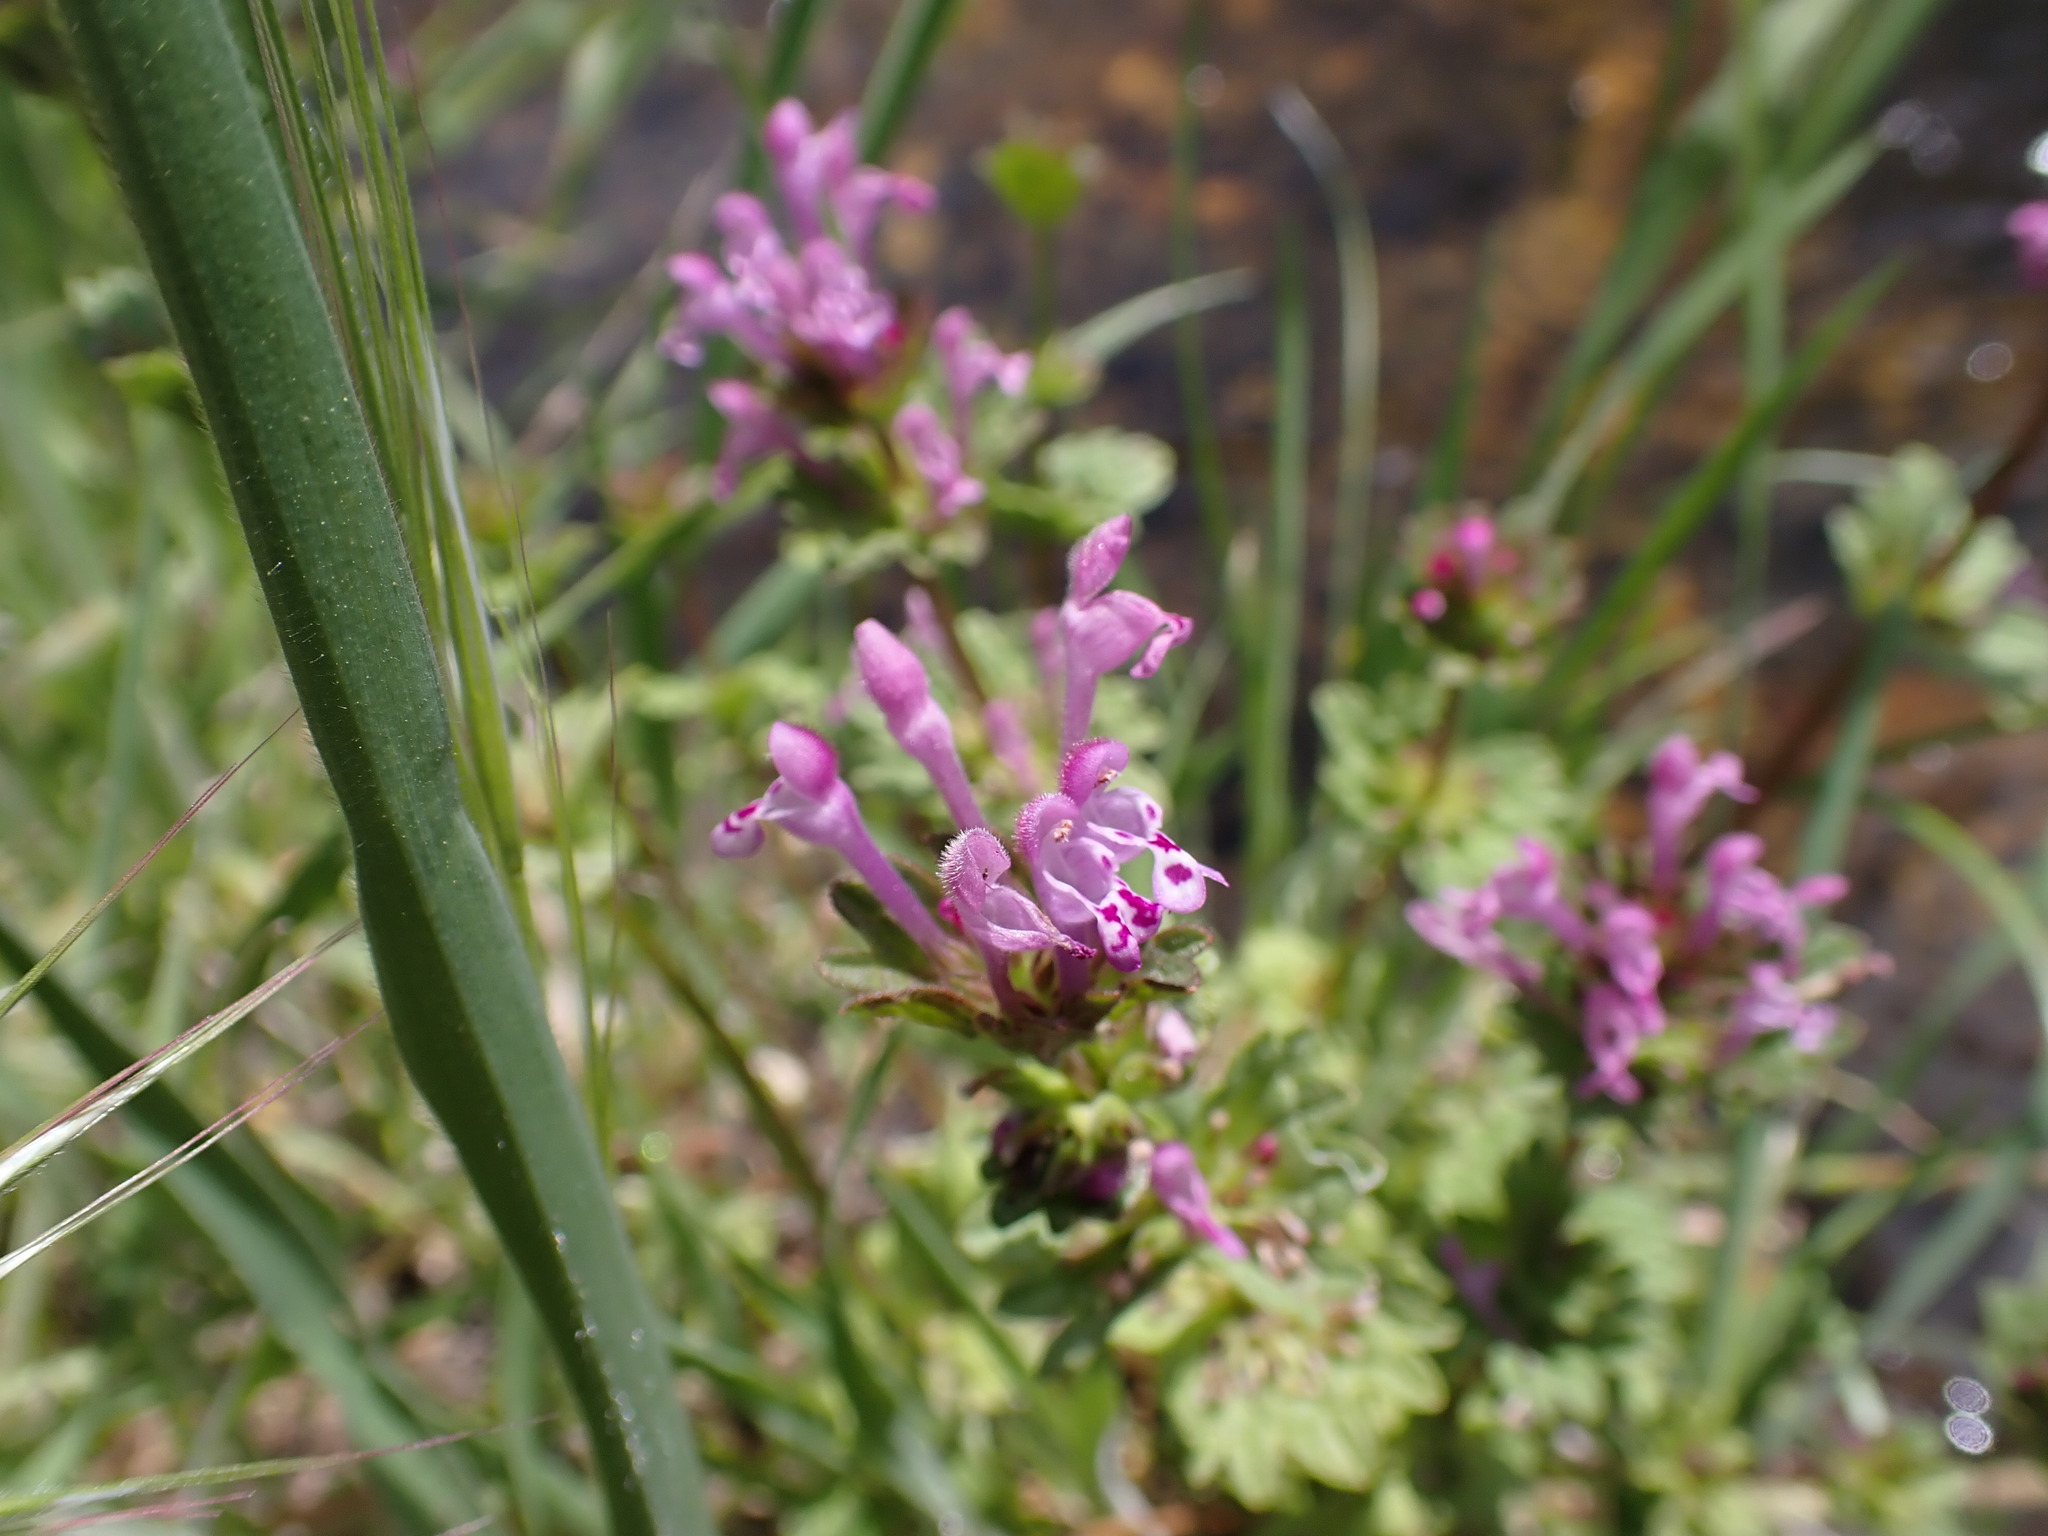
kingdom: Plantae
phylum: Tracheophyta
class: Magnoliopsida
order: Lamiales
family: Lamiaceae
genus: Lamium
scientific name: Lamium amplexicaule
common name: Henbit dead-nettle
